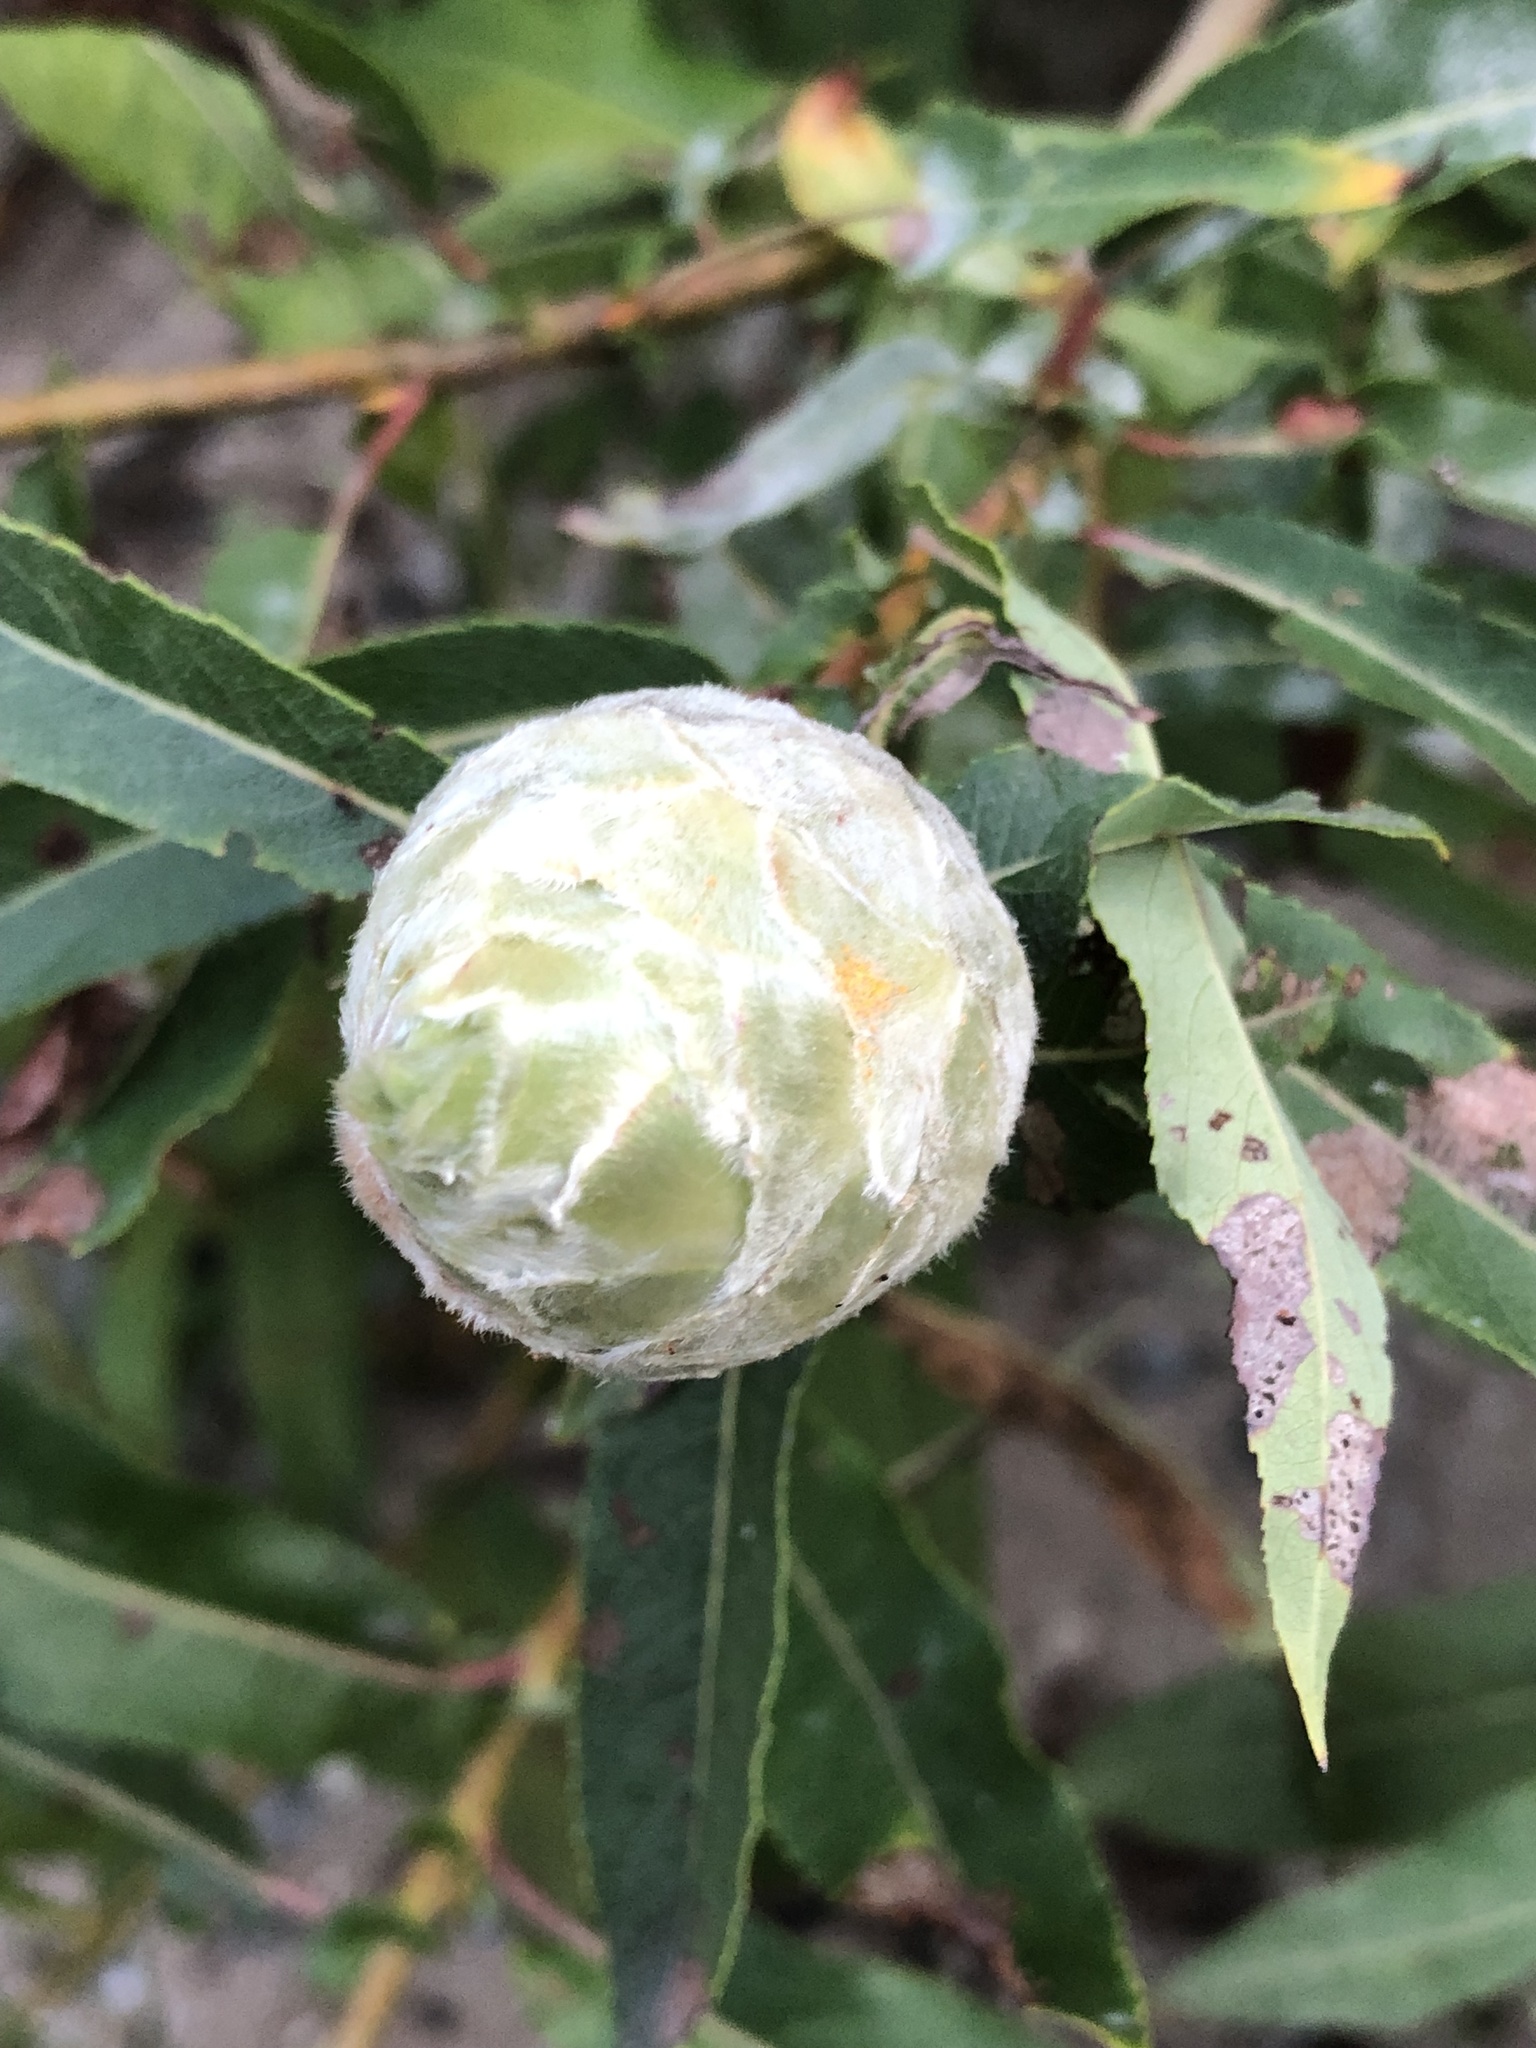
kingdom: Animalia
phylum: Arthropoda
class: Insecta
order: Diptera
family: Cecidomyiidae
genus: Rabdophaga
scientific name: Rabdophaga strobiloides
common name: Willow pinecone gall midge
